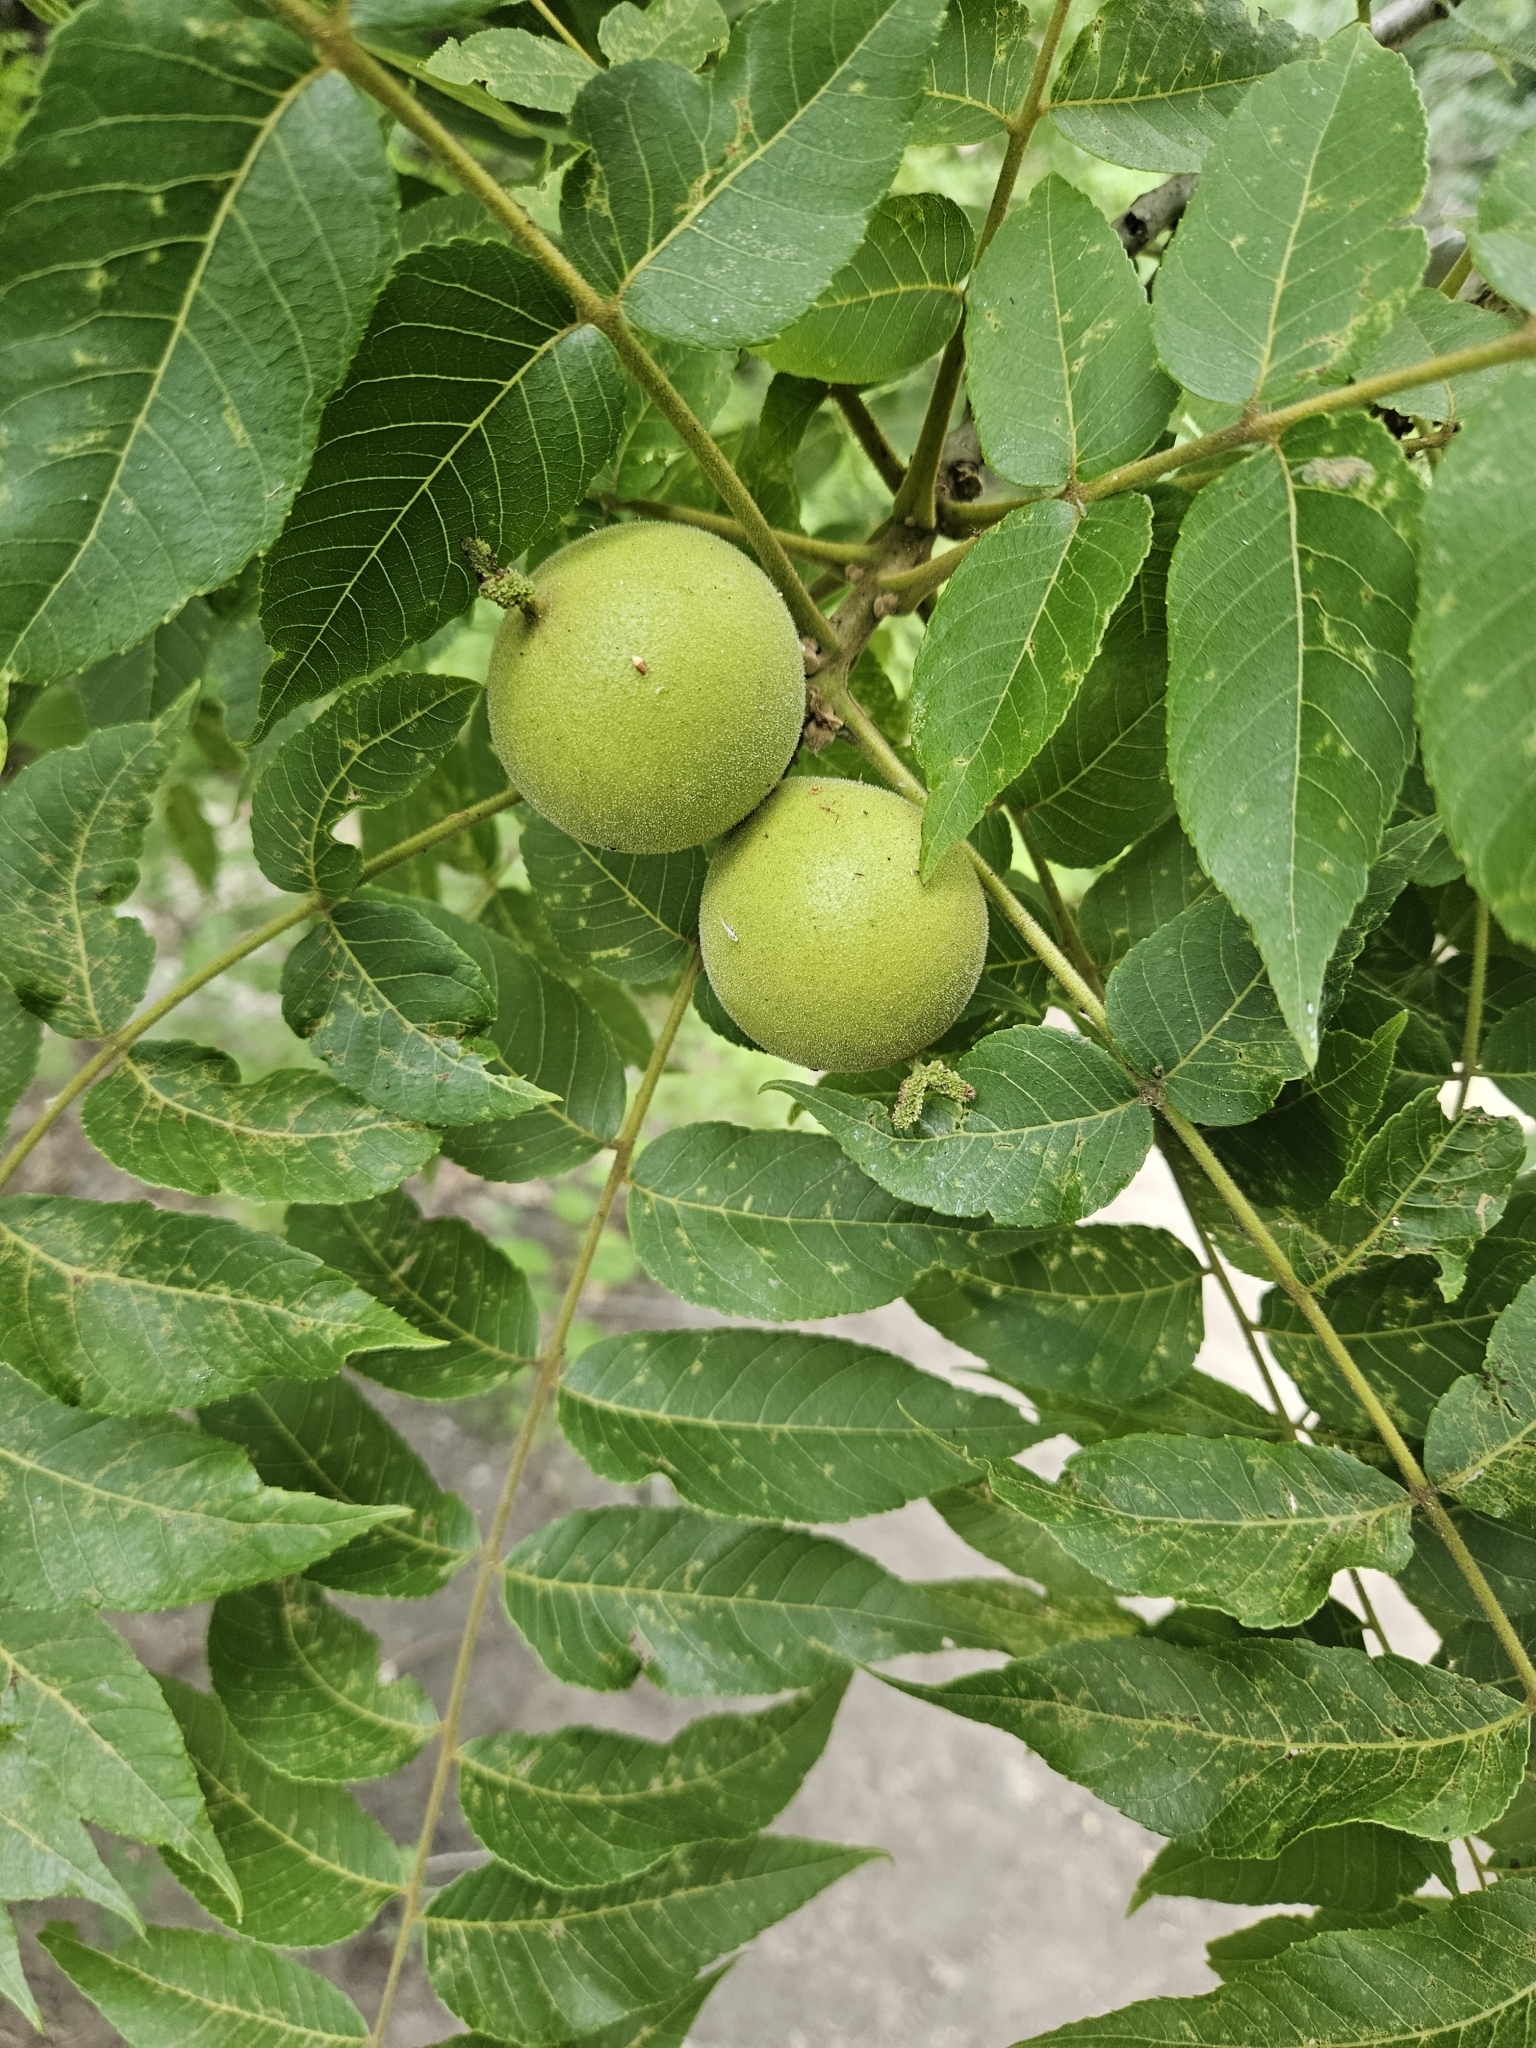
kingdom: Plantae
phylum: Tracheophyta
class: Magnoliopsida
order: Fagales
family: Juglandaceae
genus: Juglans
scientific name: Juglans nigra
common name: Black walnut
